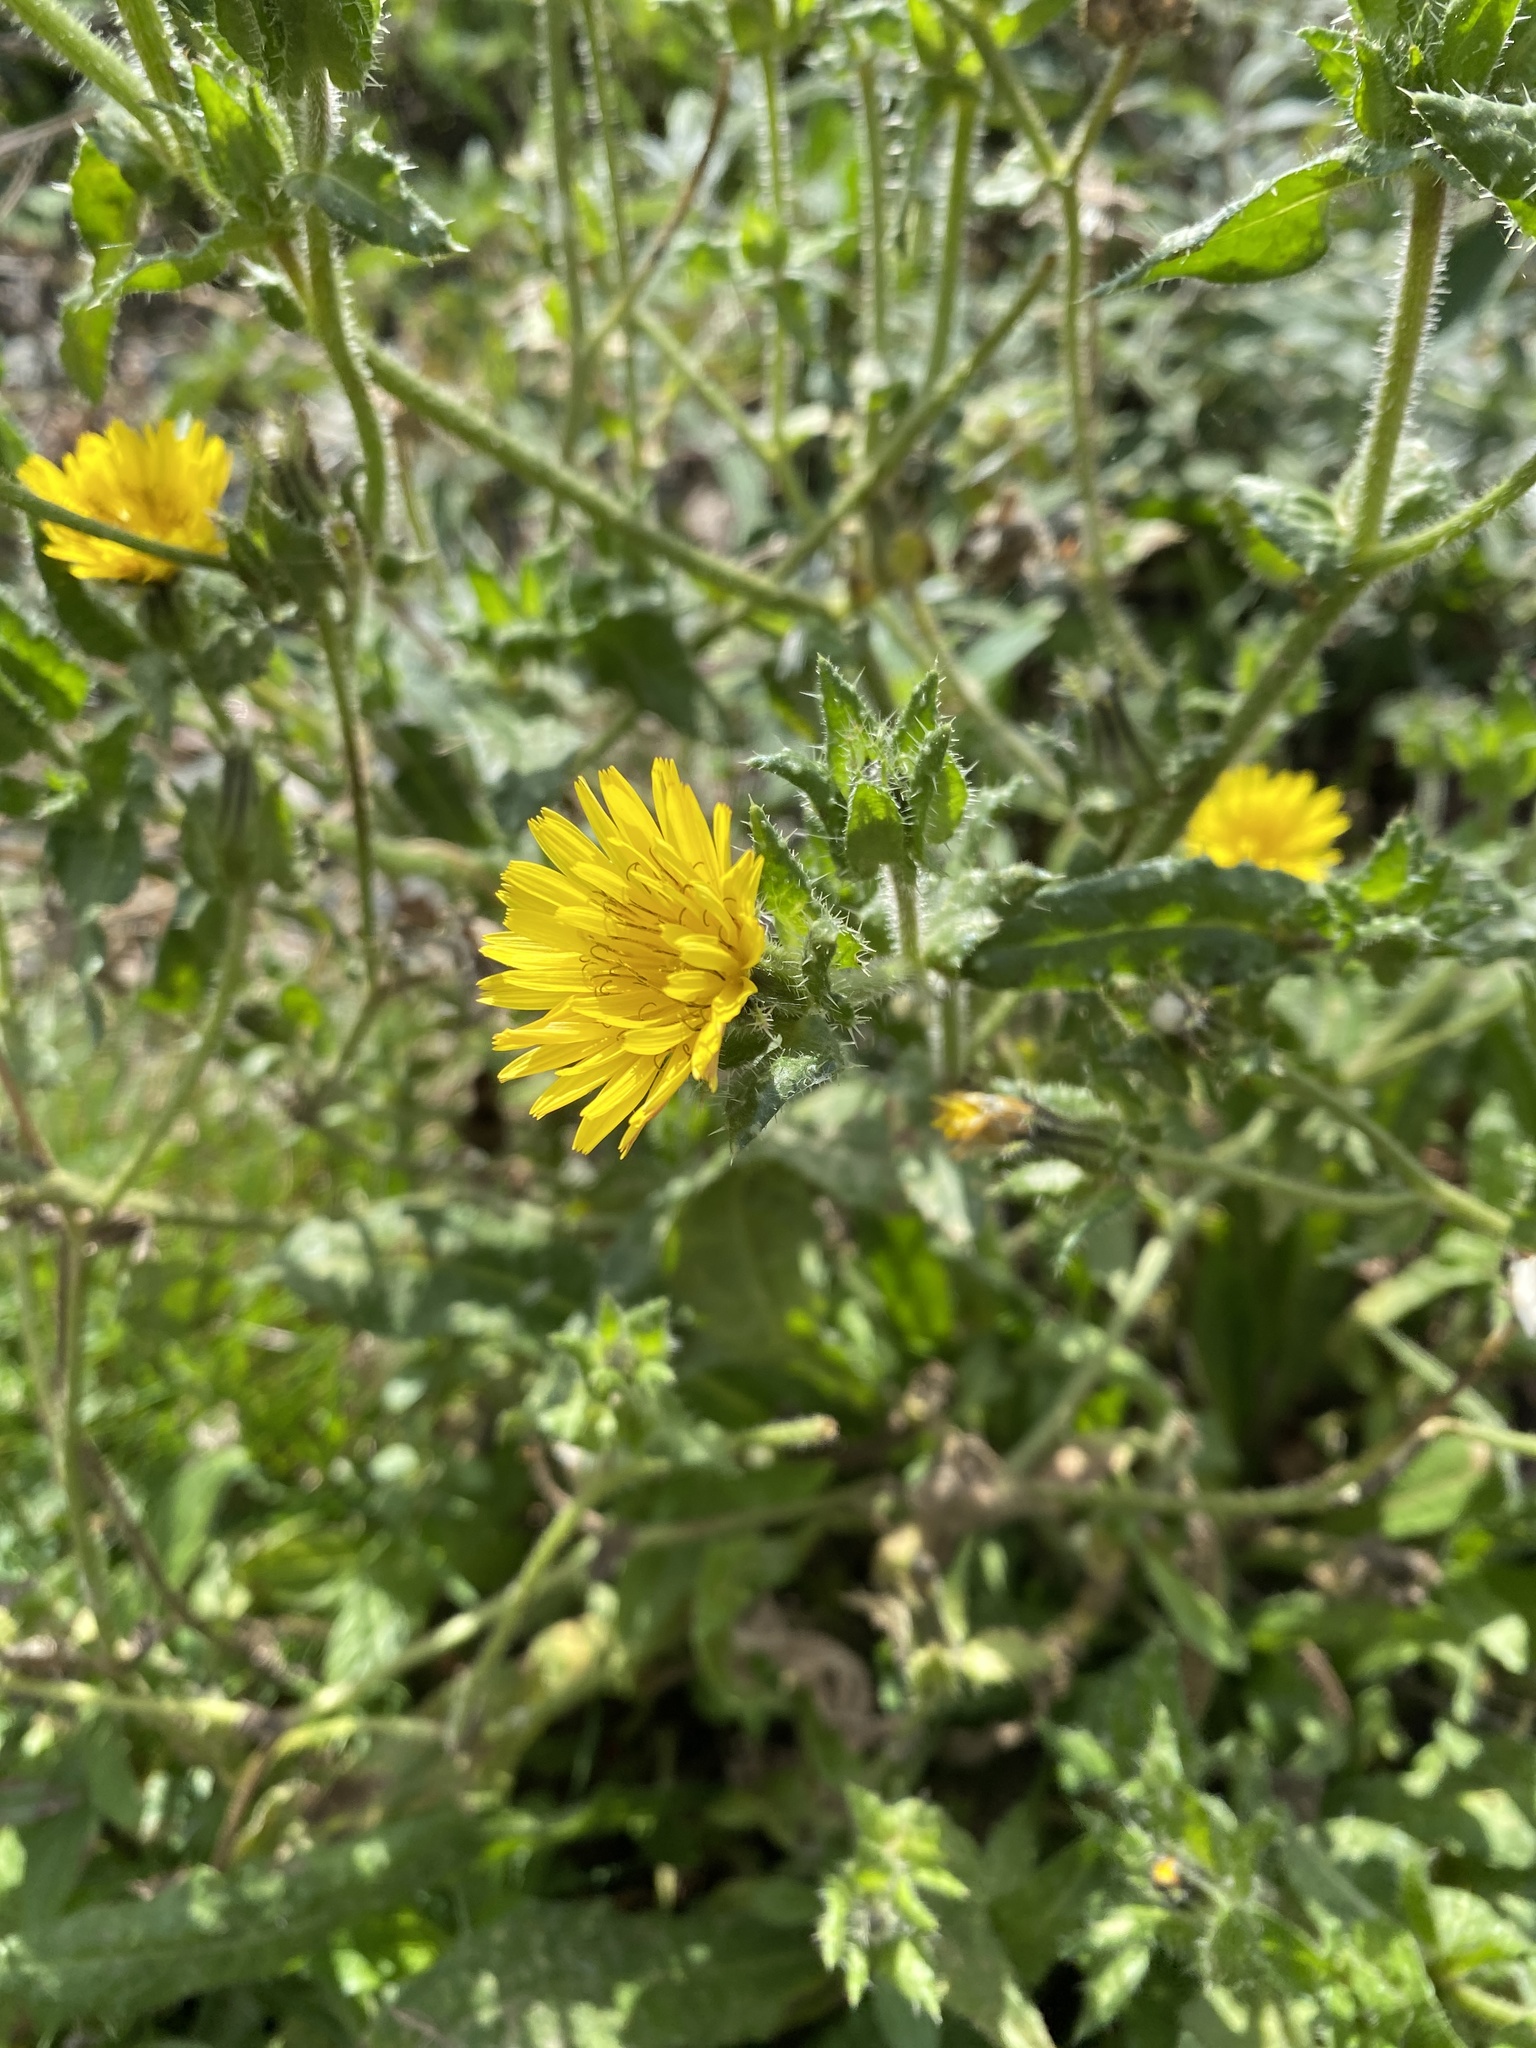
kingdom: Plantae
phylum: Tracheophyta
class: Magnoliopsida
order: Asterales
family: Asteraceae
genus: Helminthotheca
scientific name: Helminthotheca echioides
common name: Ox-tongue
